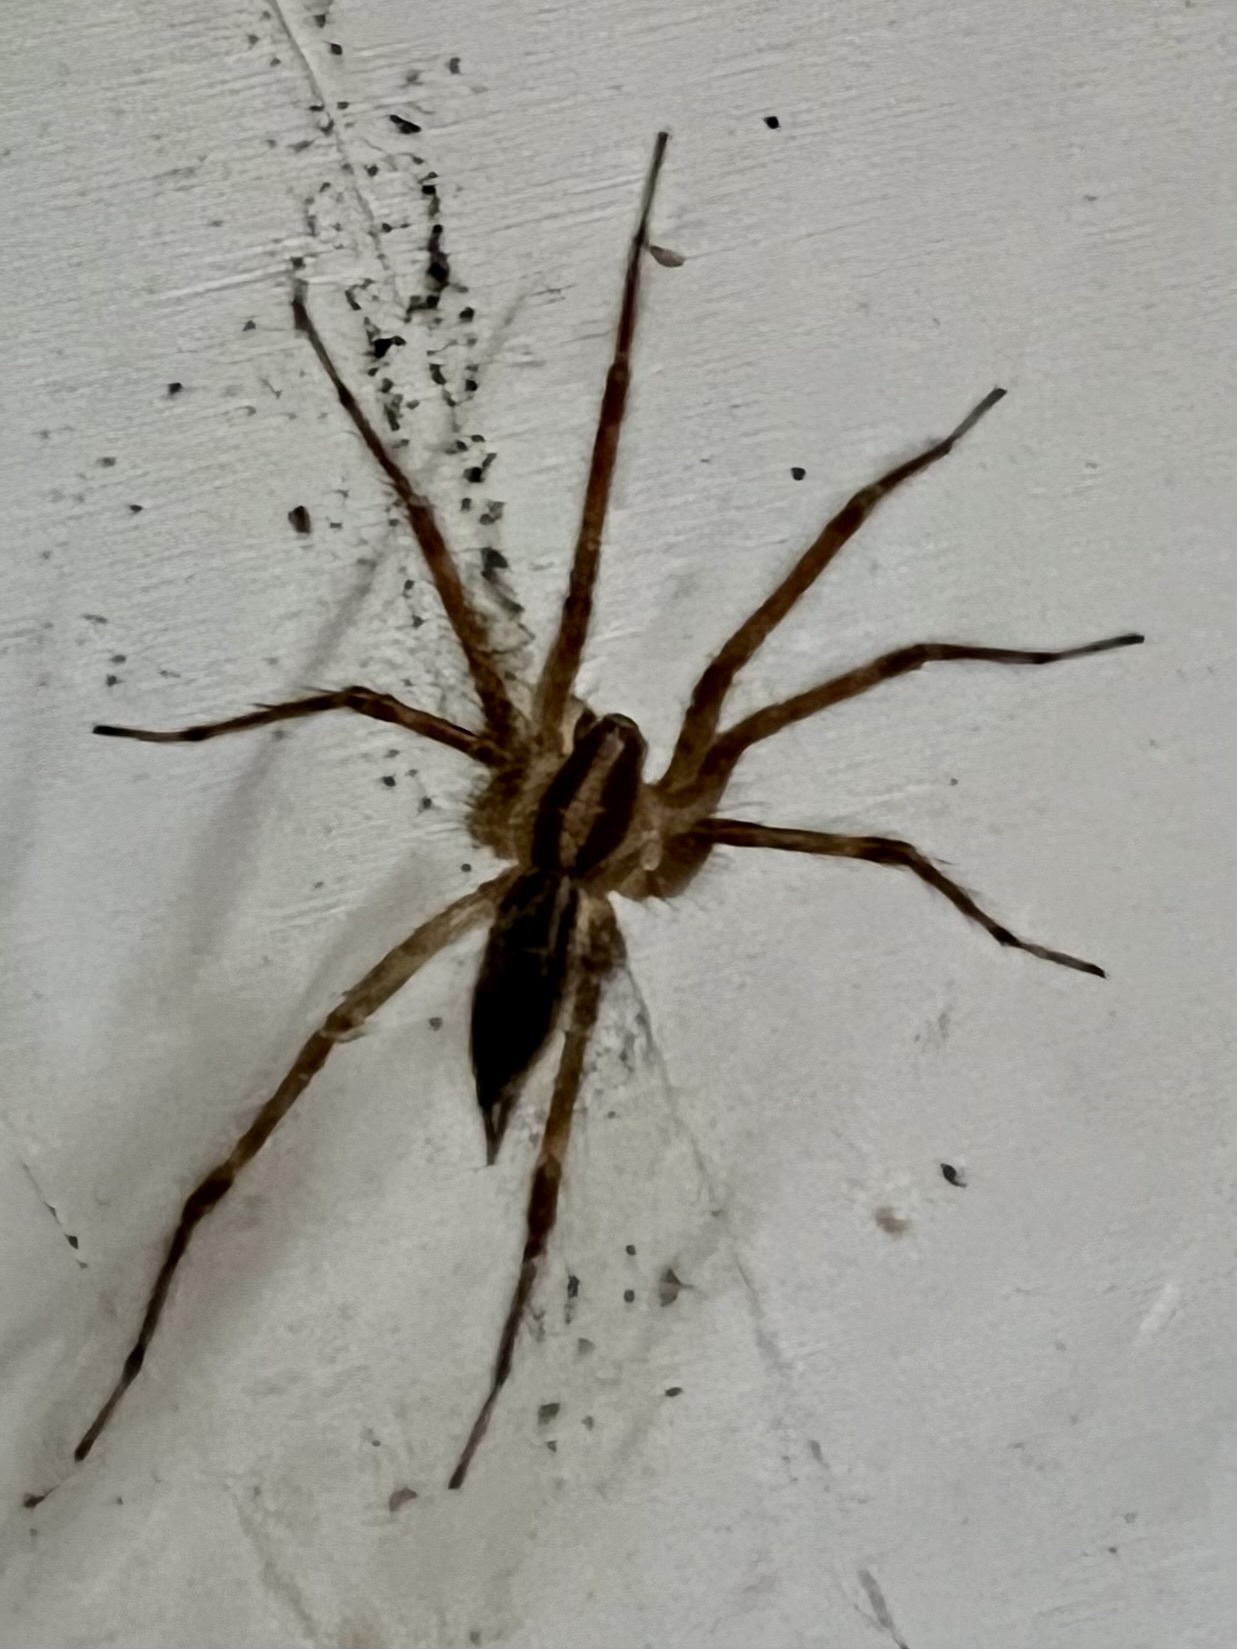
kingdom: Animalia
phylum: Arthropoda
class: Arachnida
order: Araneae
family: Agelenidae
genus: Agelenopsis
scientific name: Agelenopsis
